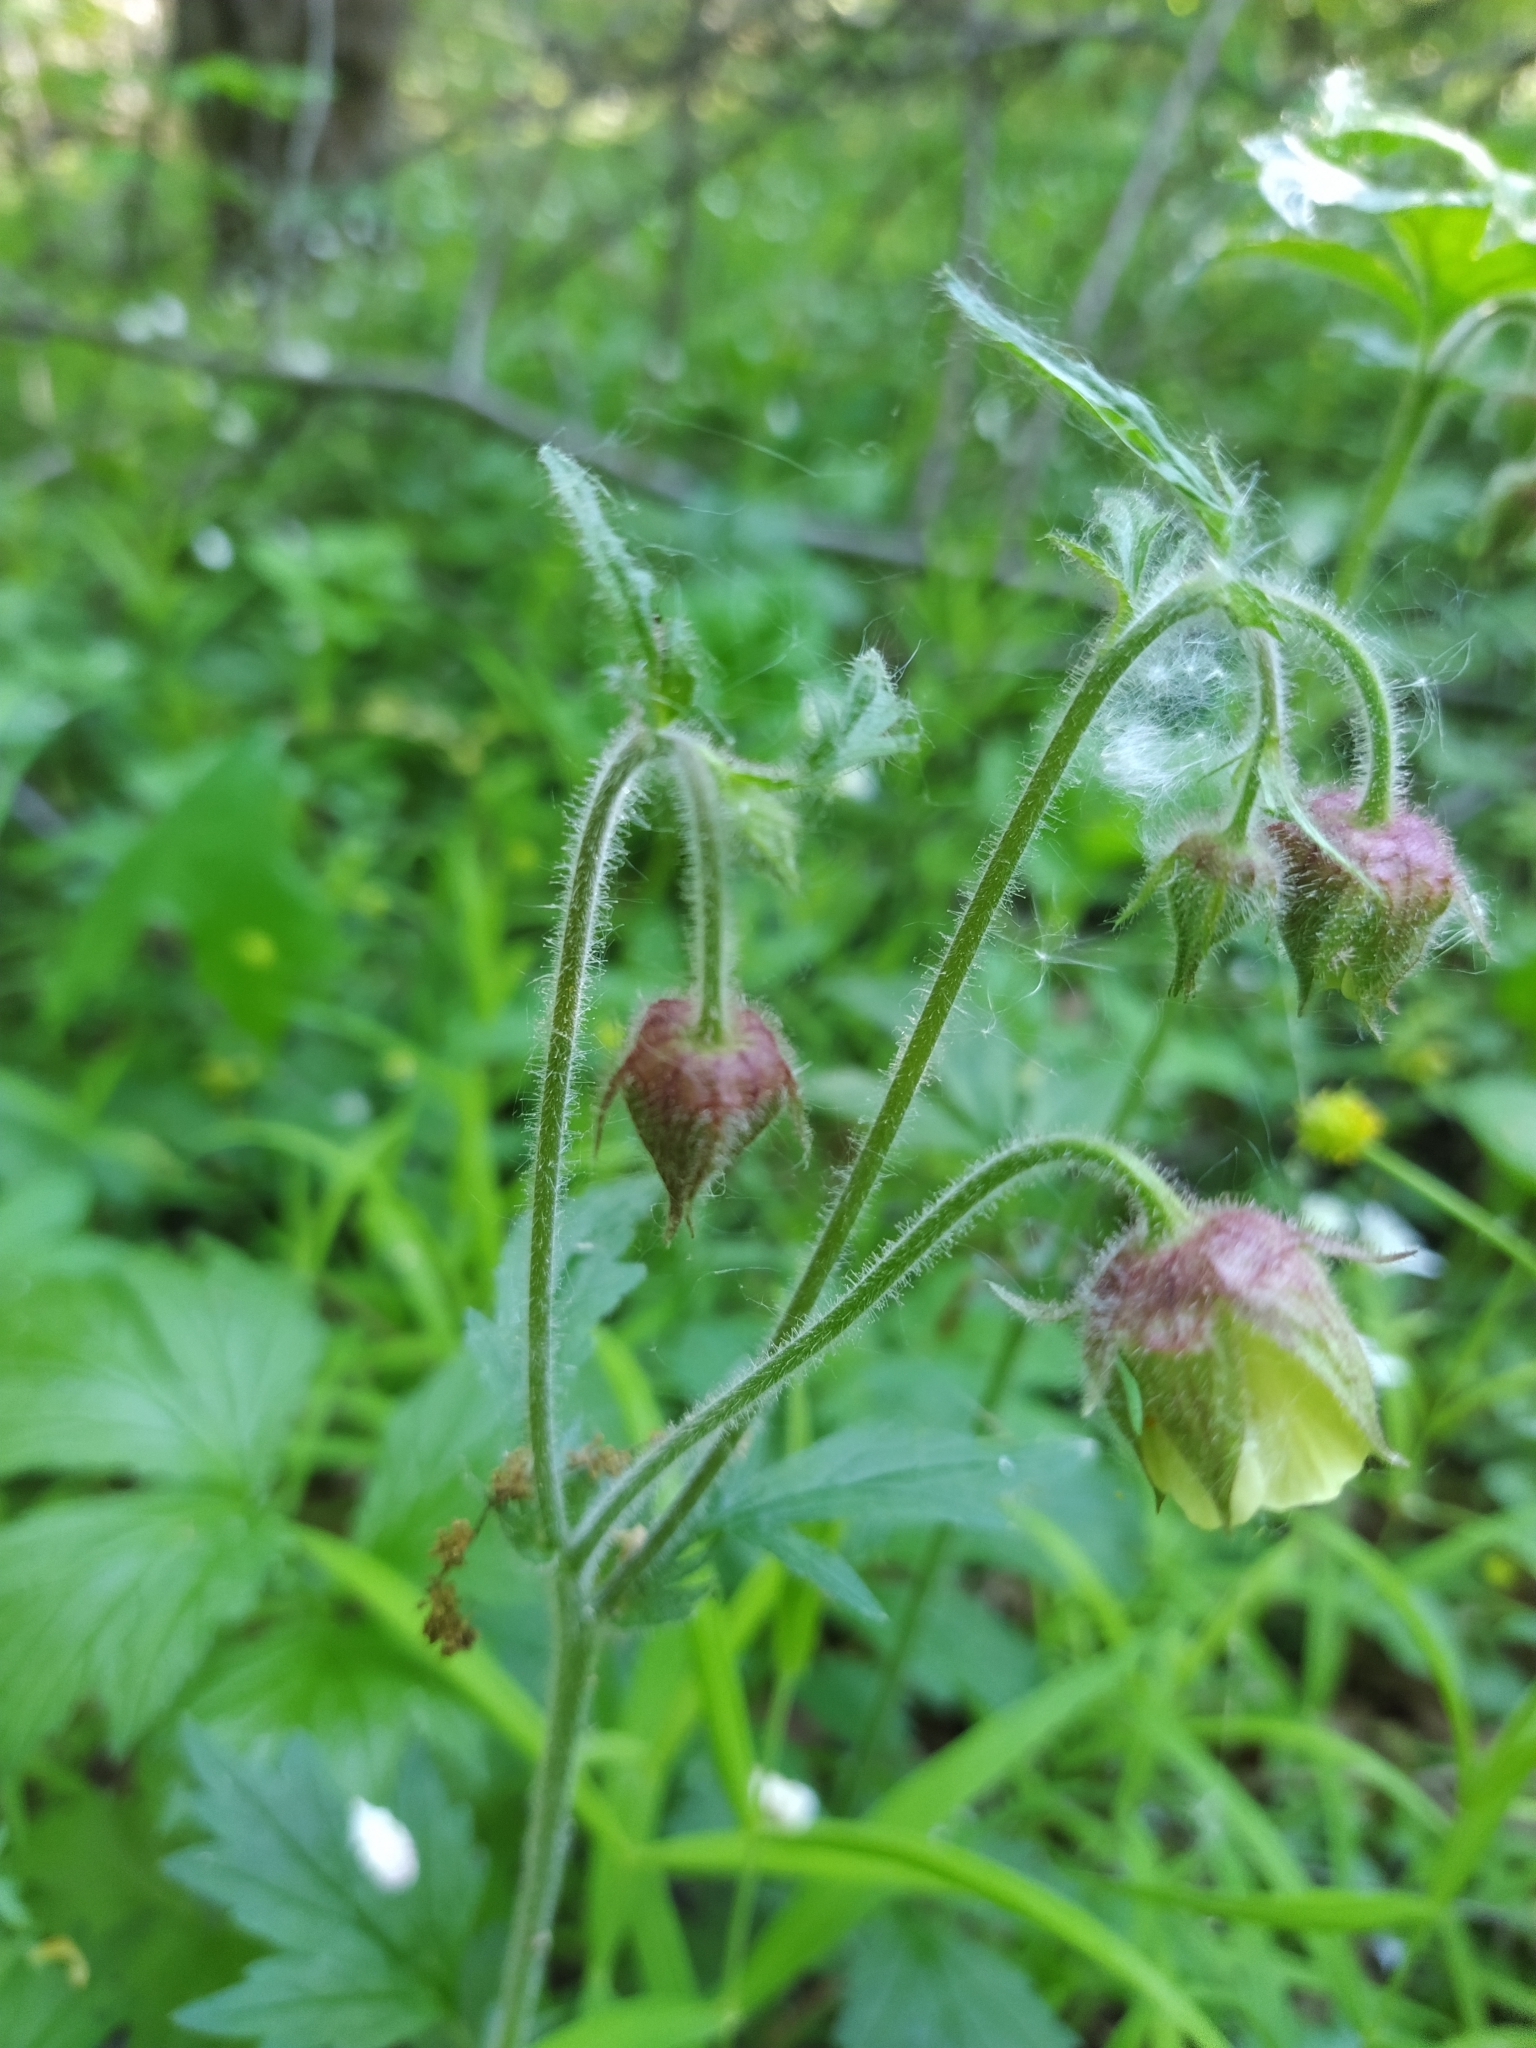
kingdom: Plantae
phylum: Tracheophyta
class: Magnoliopsida
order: Rosales
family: Rosaceae
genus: Geum
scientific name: Geum rivale
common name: Water avens
